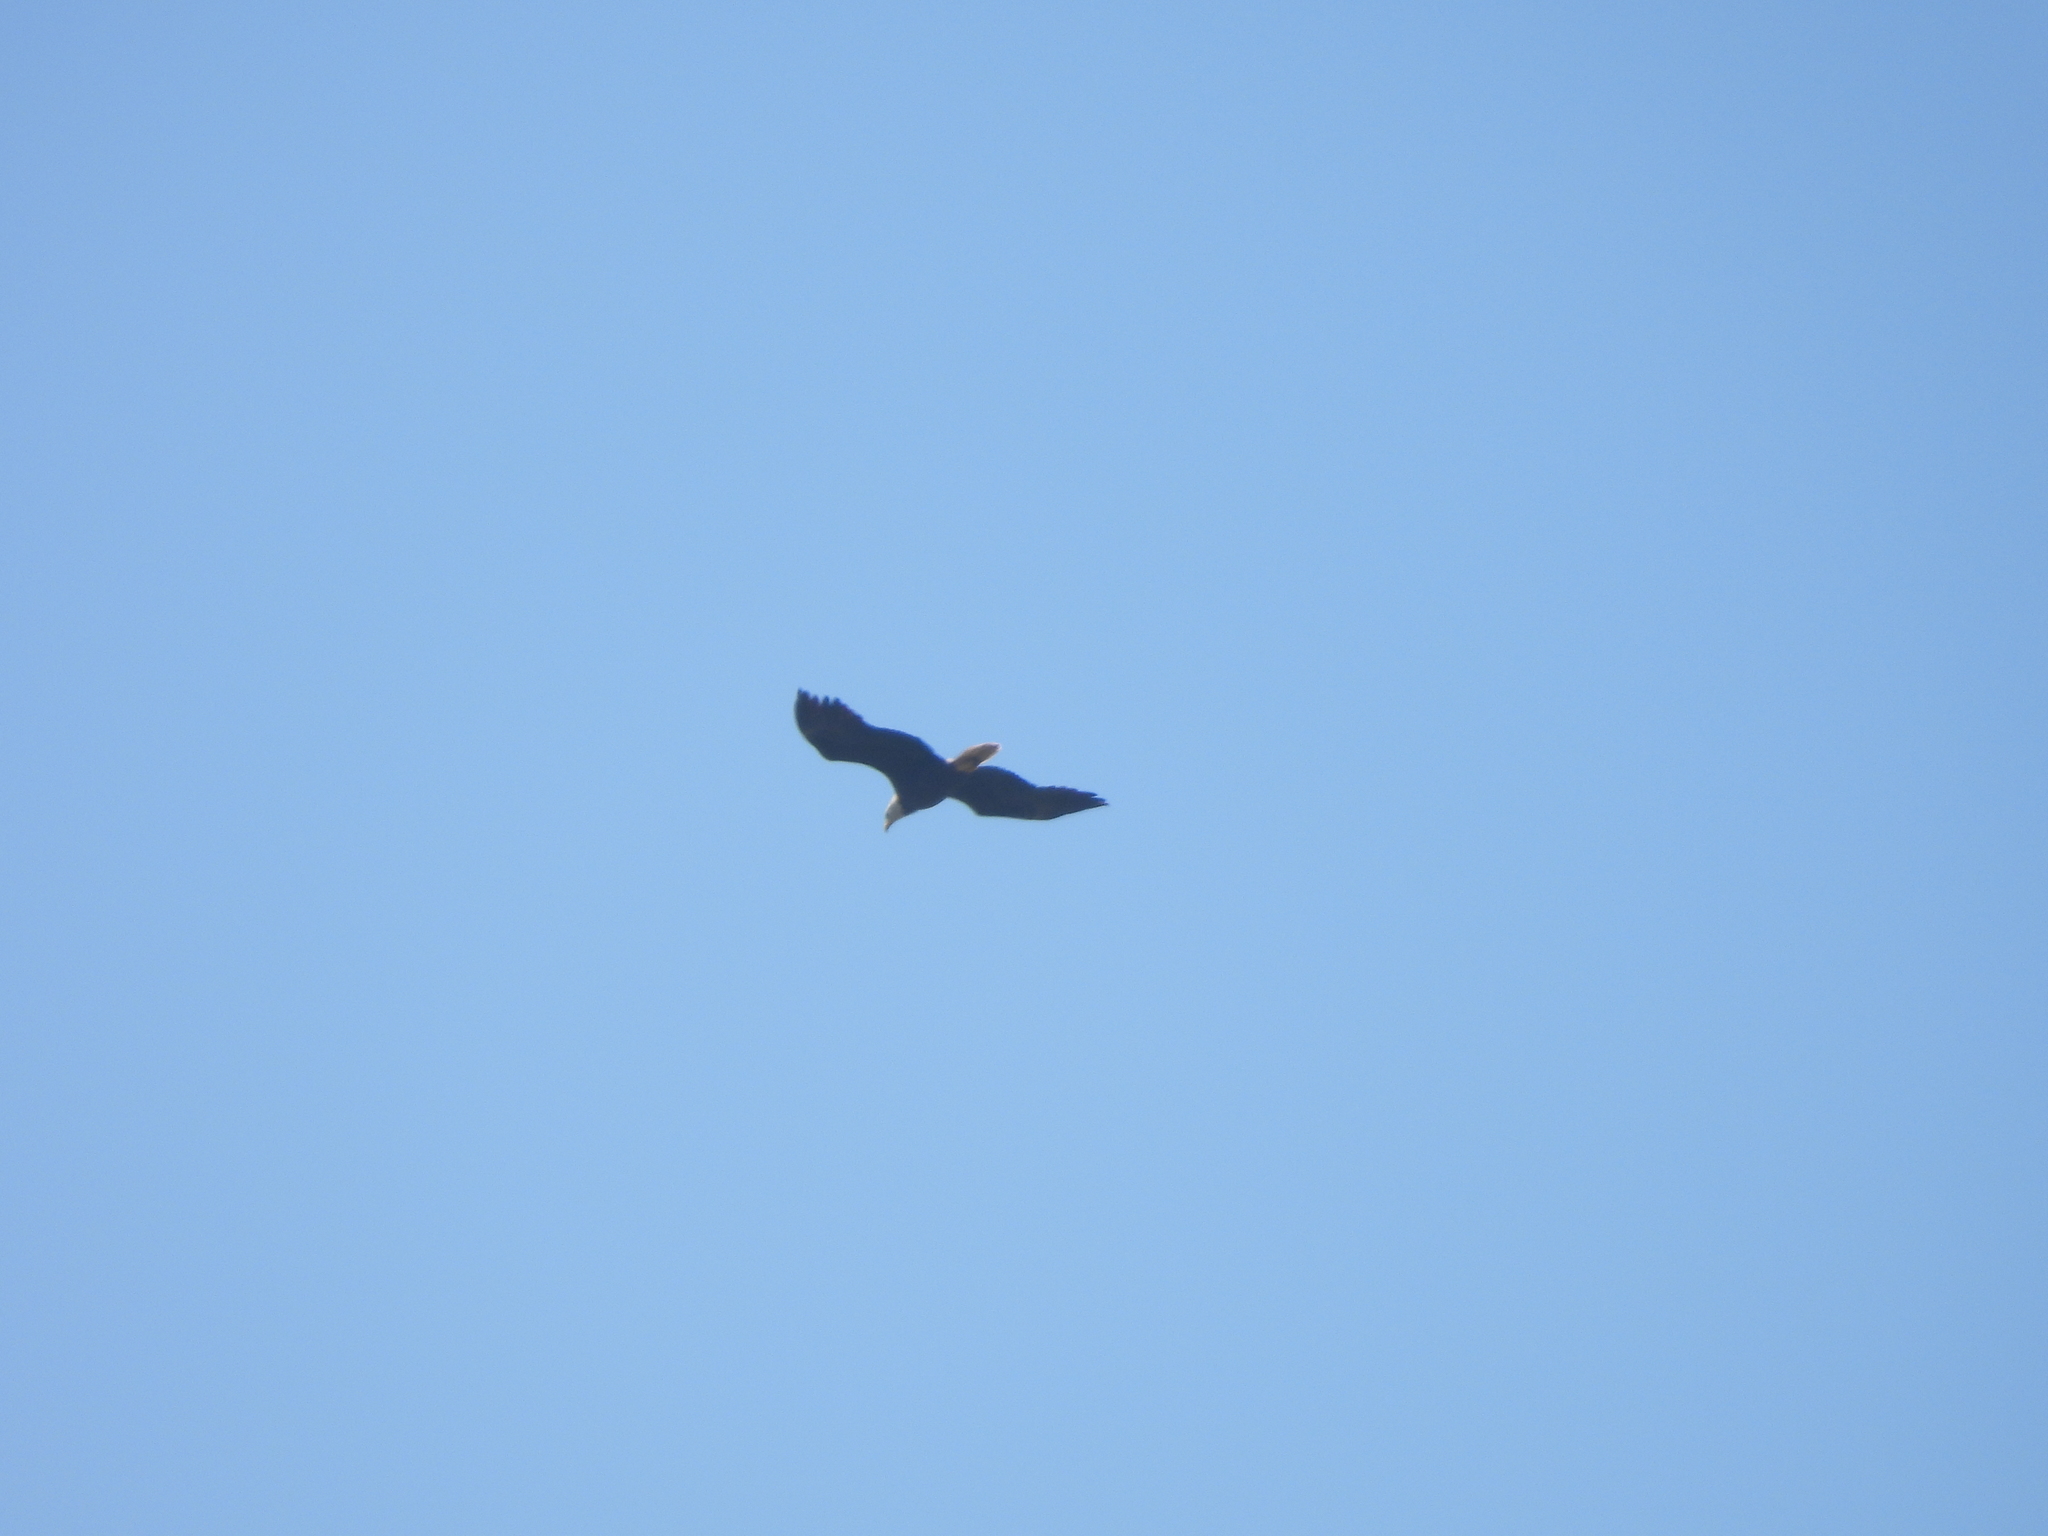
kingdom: Animalia
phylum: Chordata
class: Aves
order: Accipitriformes
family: Accipitridae
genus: Haliaeetus
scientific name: Haliaeetus leucocephalus
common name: Bald eagle
